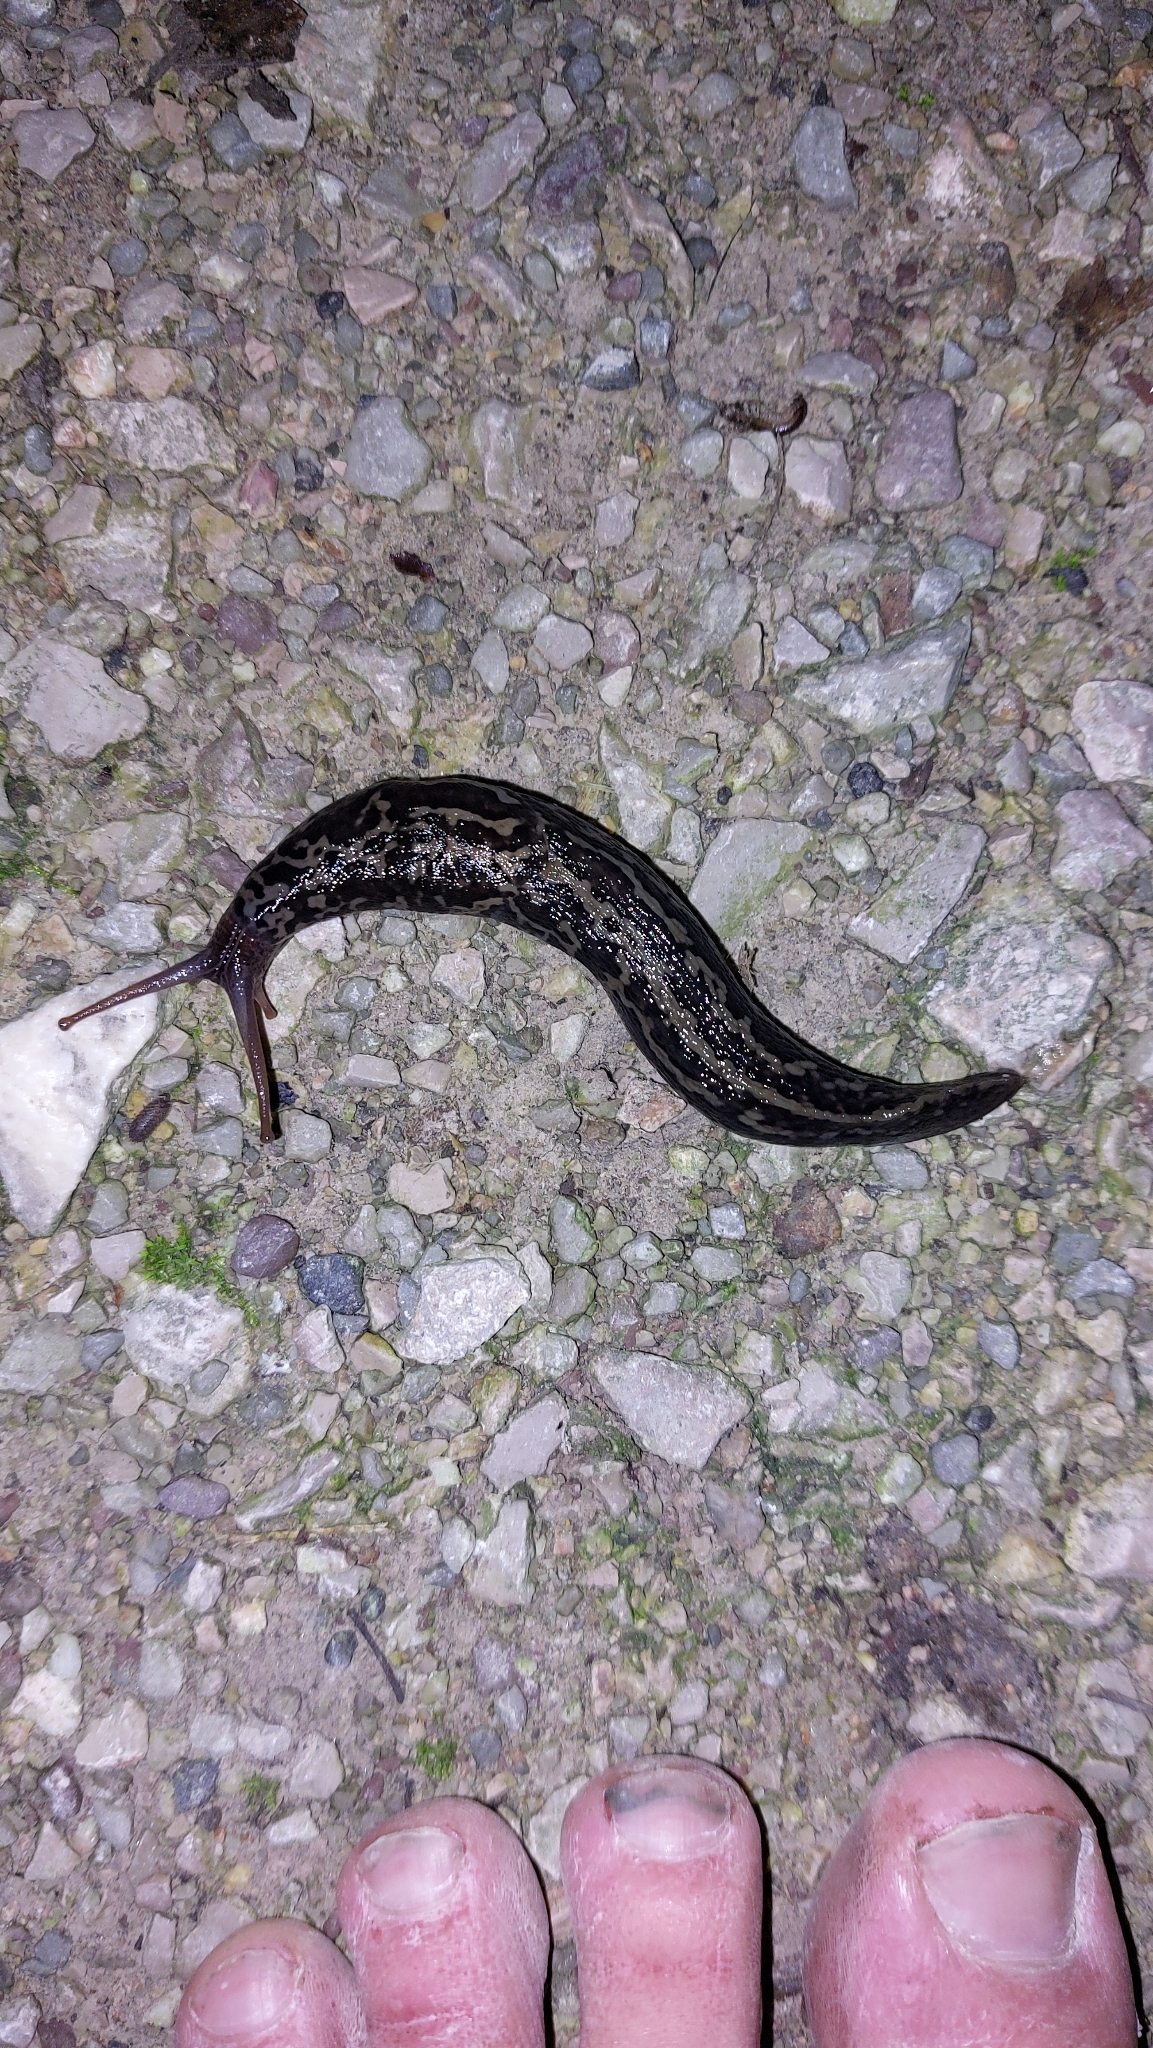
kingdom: Animalia
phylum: Mollusca
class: Gastropoda
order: Stylommatophora
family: Limacidae
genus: Limax
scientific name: Limax maximus
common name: Great grey slug
